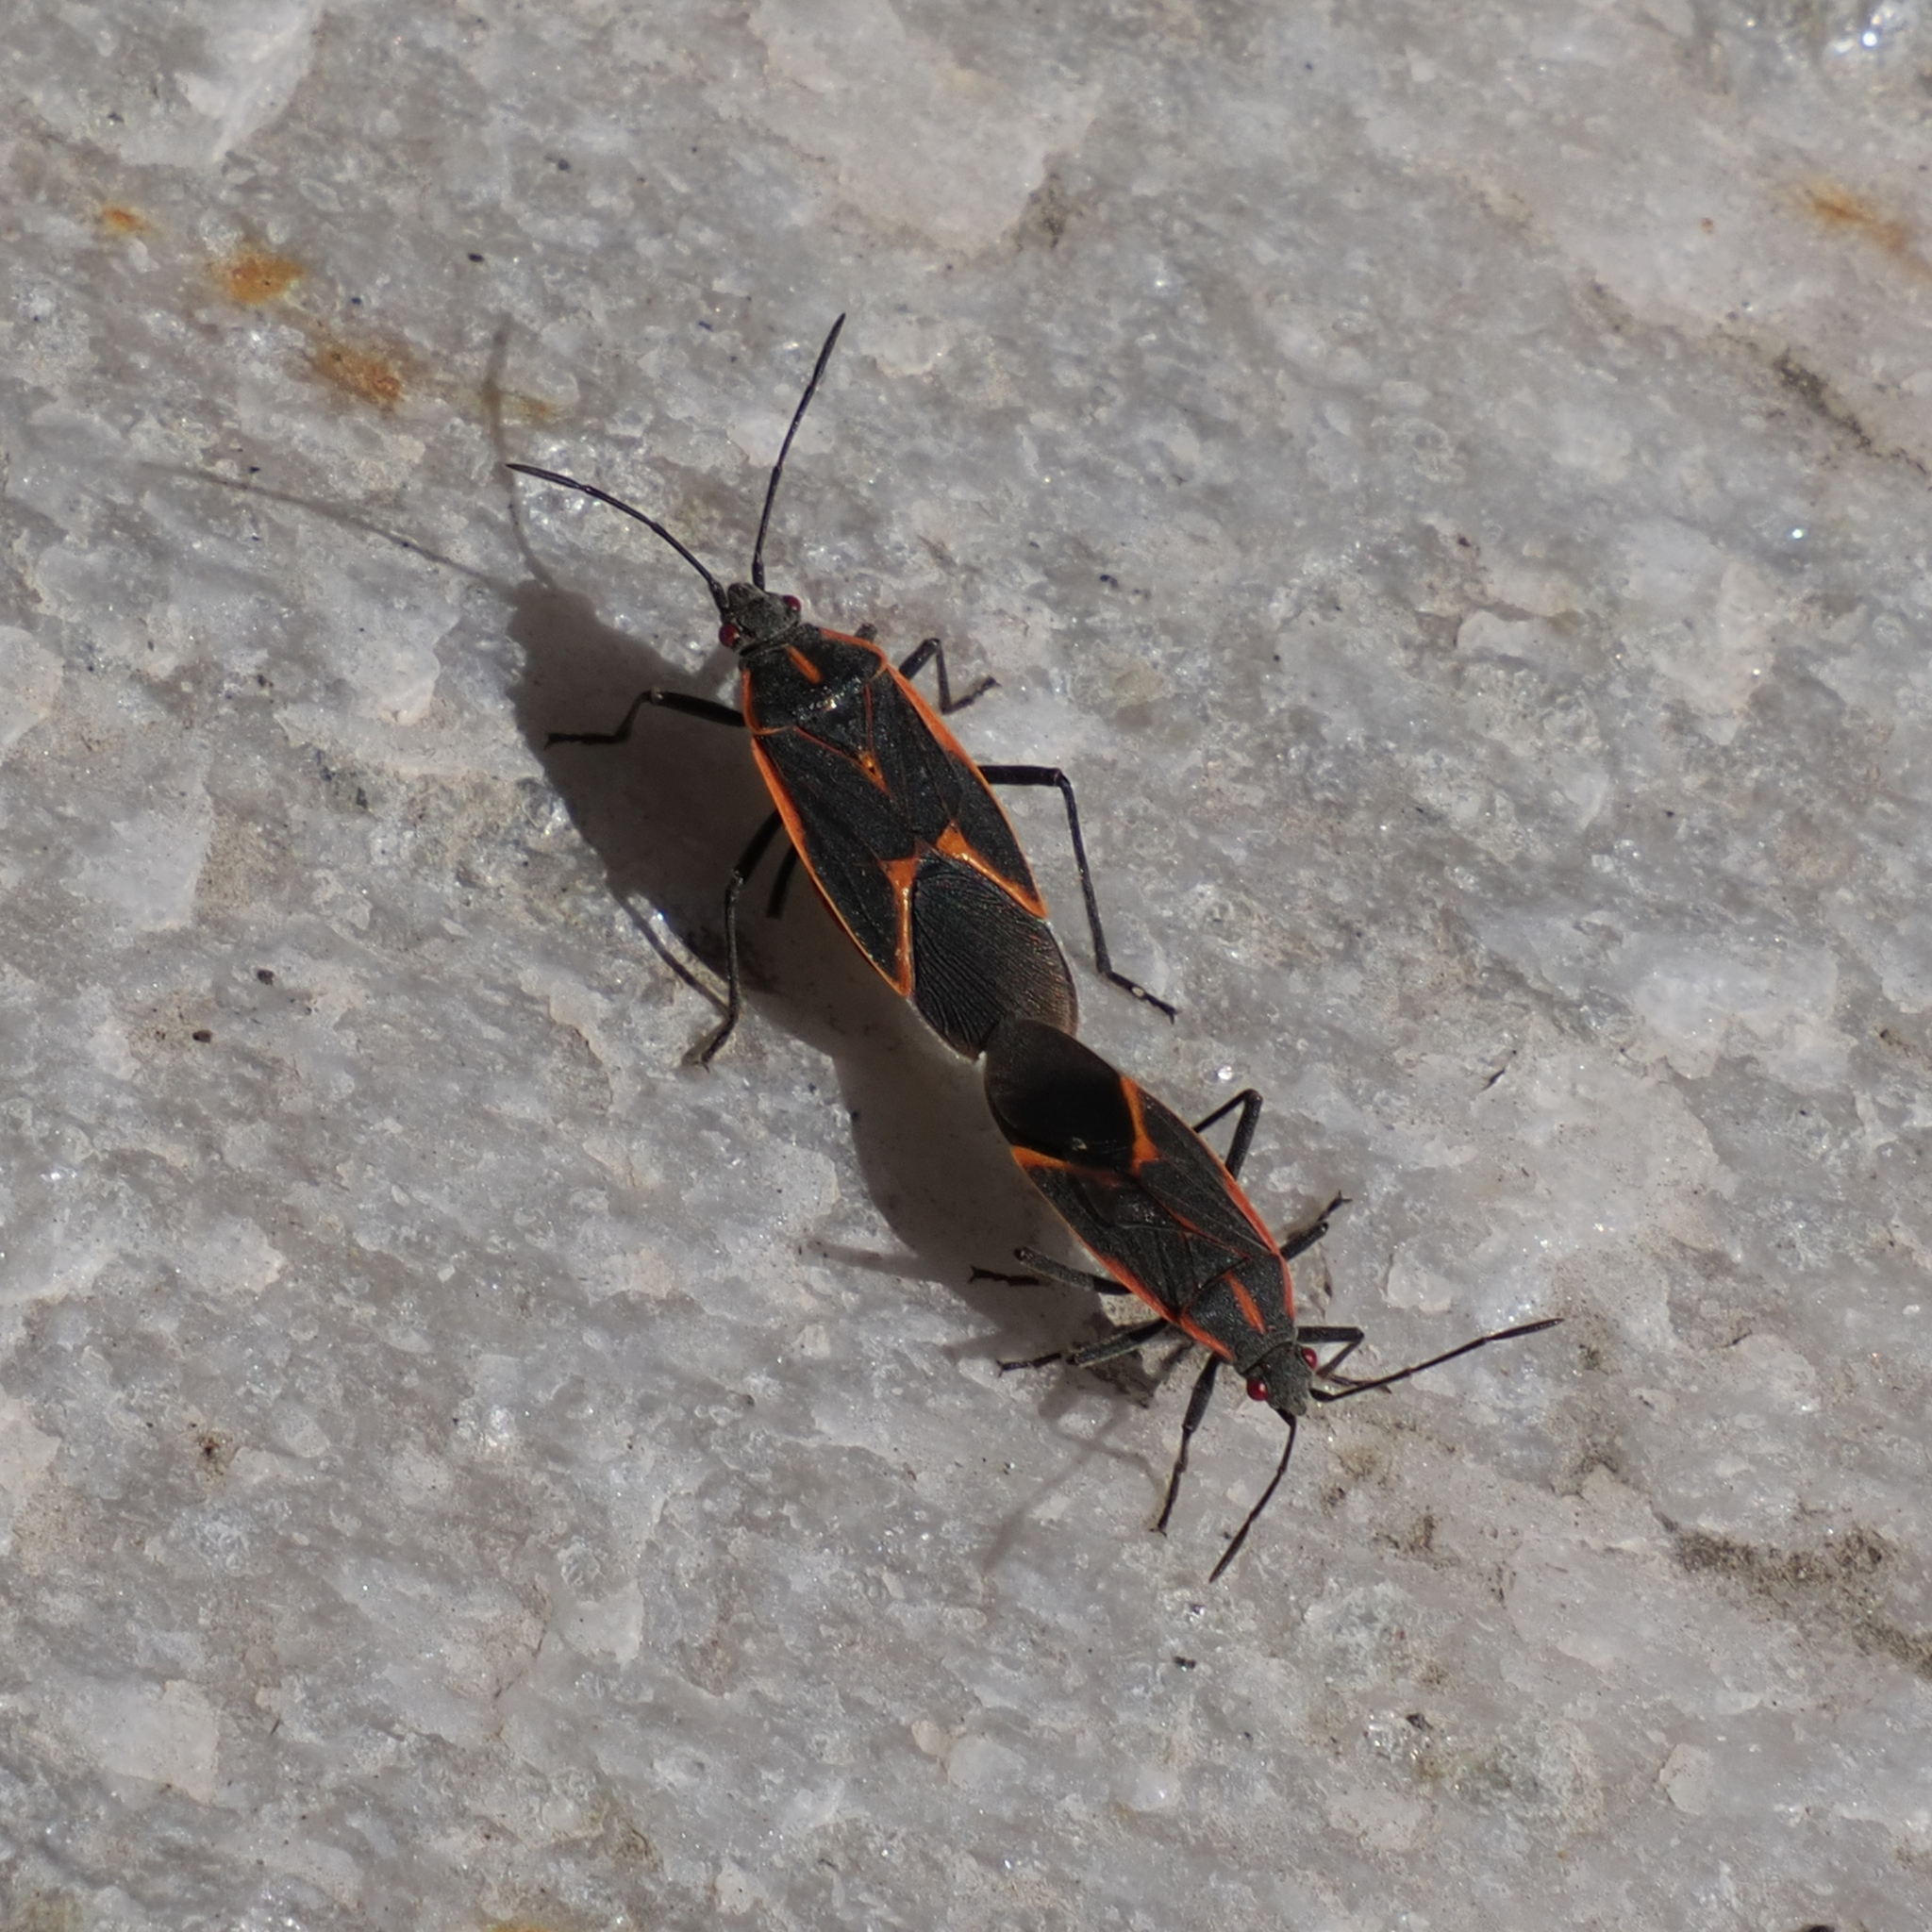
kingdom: Animalia
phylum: Arthropoda
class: Insecta
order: Hemiptera
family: Rhopalidae
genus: Boisea
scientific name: Boisea trivittata
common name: Boxelder bug
